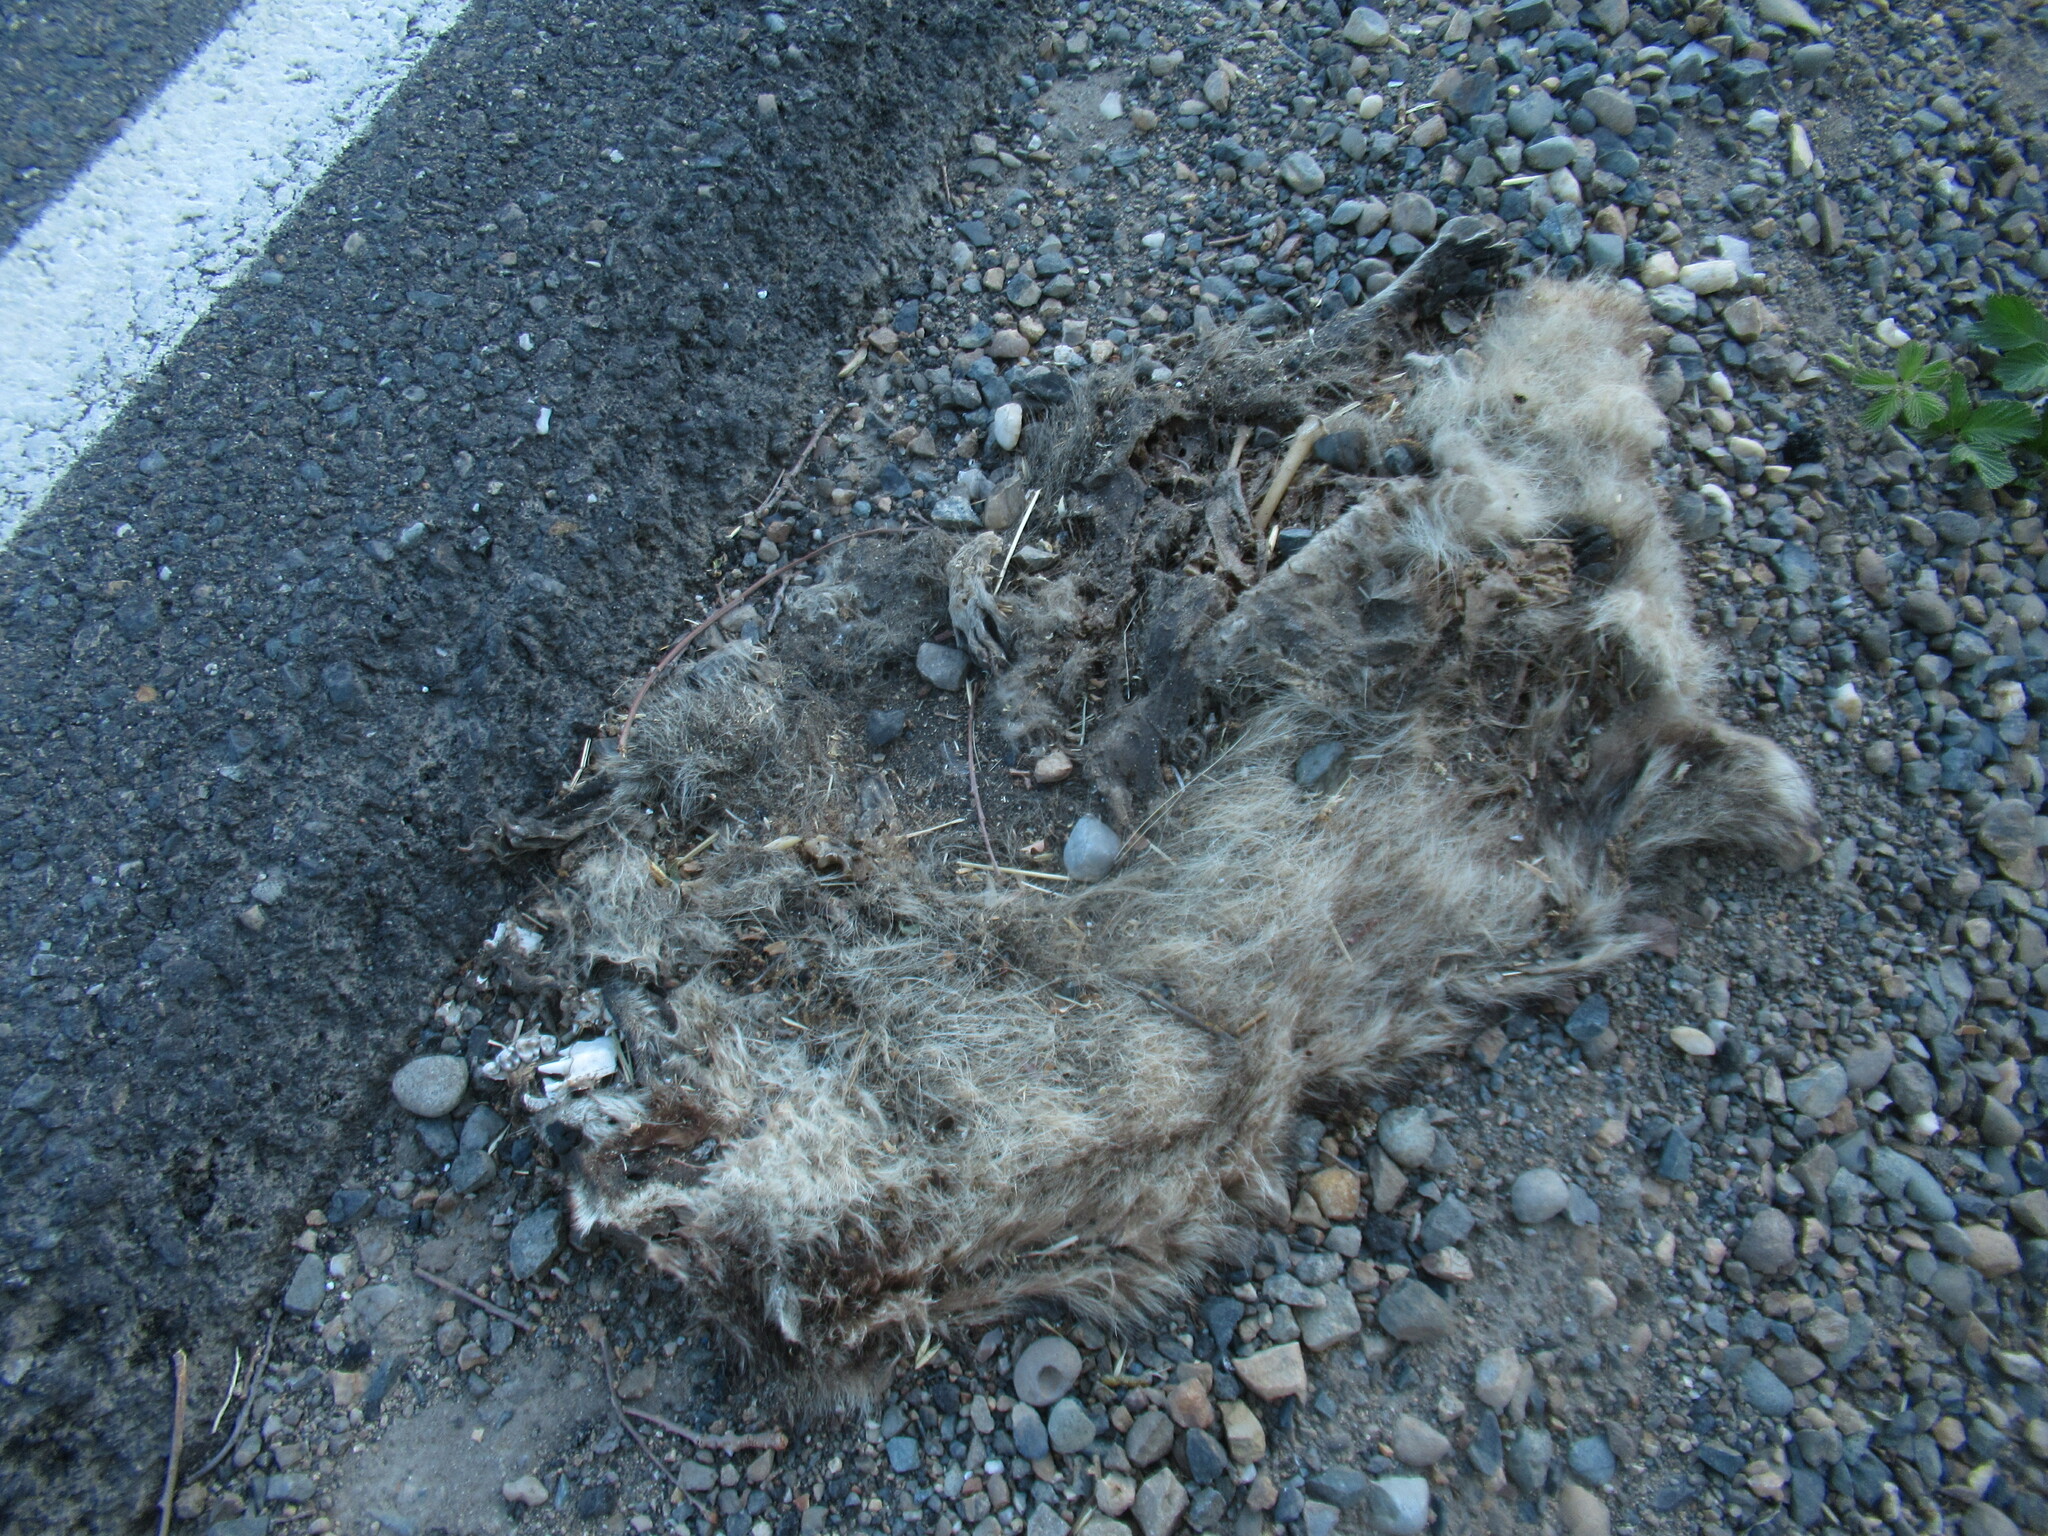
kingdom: Animalia
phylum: Chordata
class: Mammalia
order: Carnivora
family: Procyonidae
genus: Procyon
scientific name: Procyon lotor
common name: Raccoon
